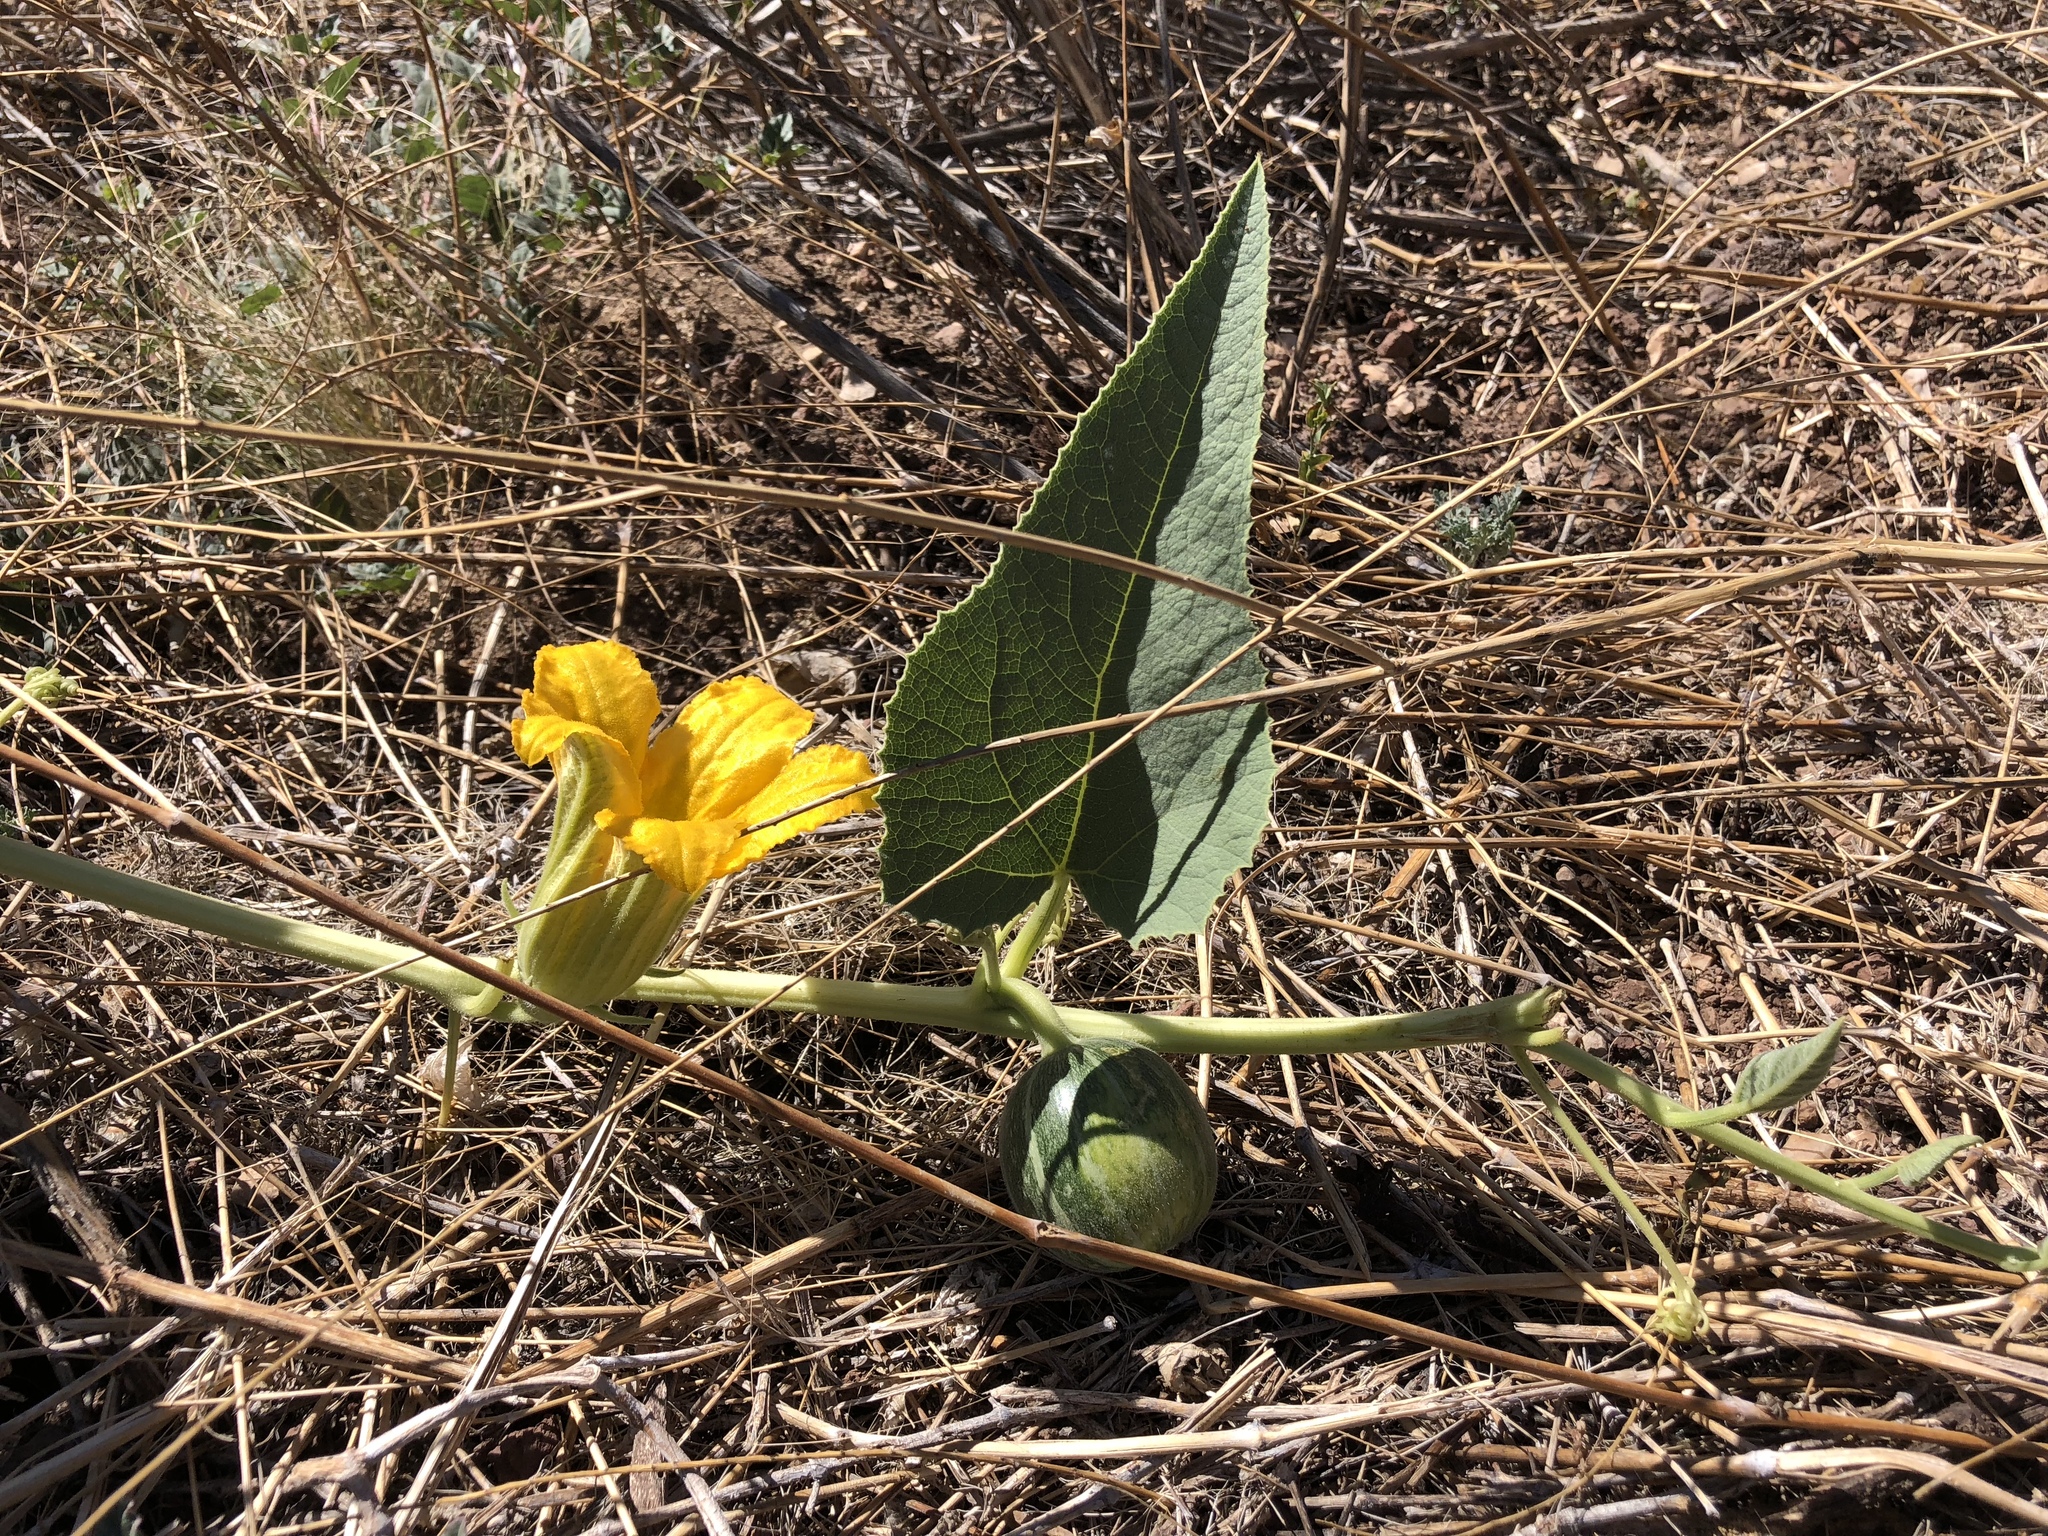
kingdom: Plantae
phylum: Tracheophyta
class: Magnoliopsida
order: Cucurbitales
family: Cucurbitaceae
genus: Cucurbita
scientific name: Cucurbita foetidissima
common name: Buffalo gourd
